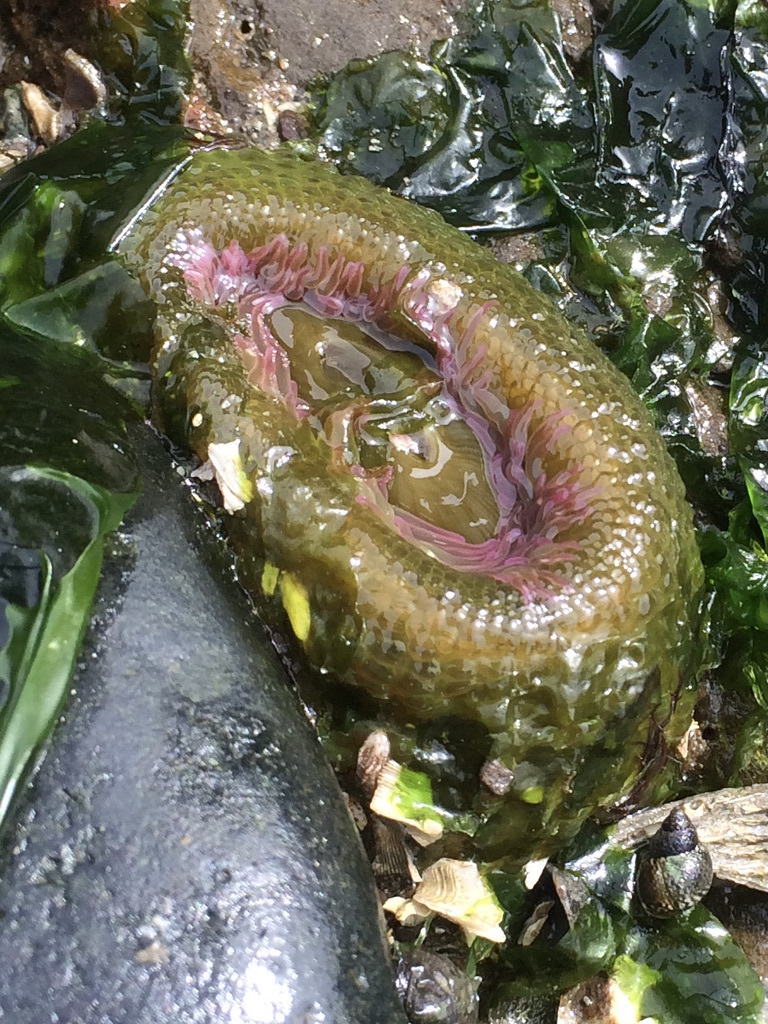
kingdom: Animalia
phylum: Cnidaria
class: Anthozoa
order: Actiniaria
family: Actiniidae
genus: Anthopleura
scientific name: Anthopleura elegantissima
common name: Clonal anemone
